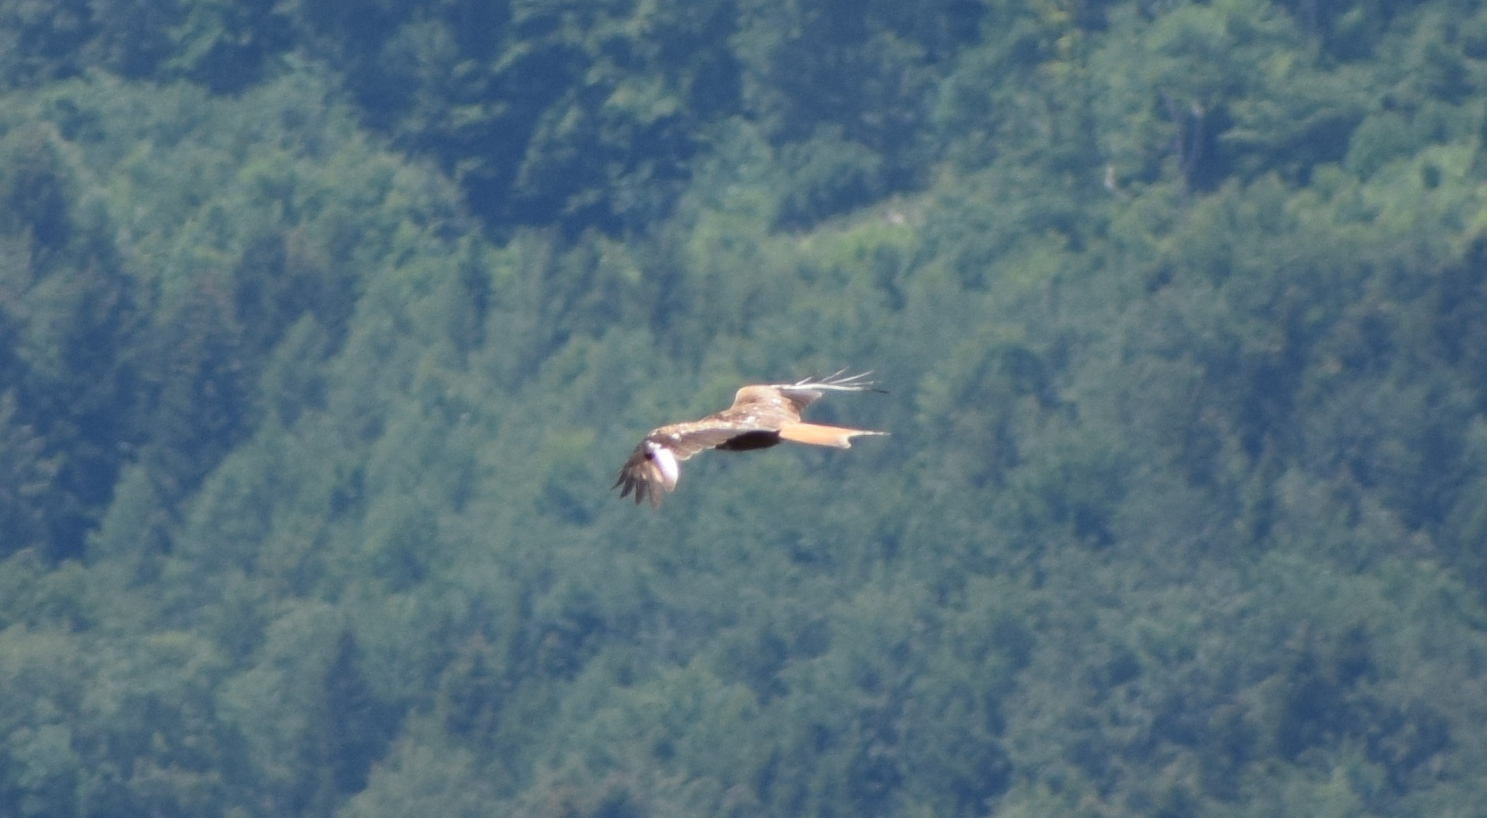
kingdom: Animalia
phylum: Chordata
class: Aves
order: Accipitriformes
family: Accipitridae
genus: Milvus
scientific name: Milvus milvus
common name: Red kite
